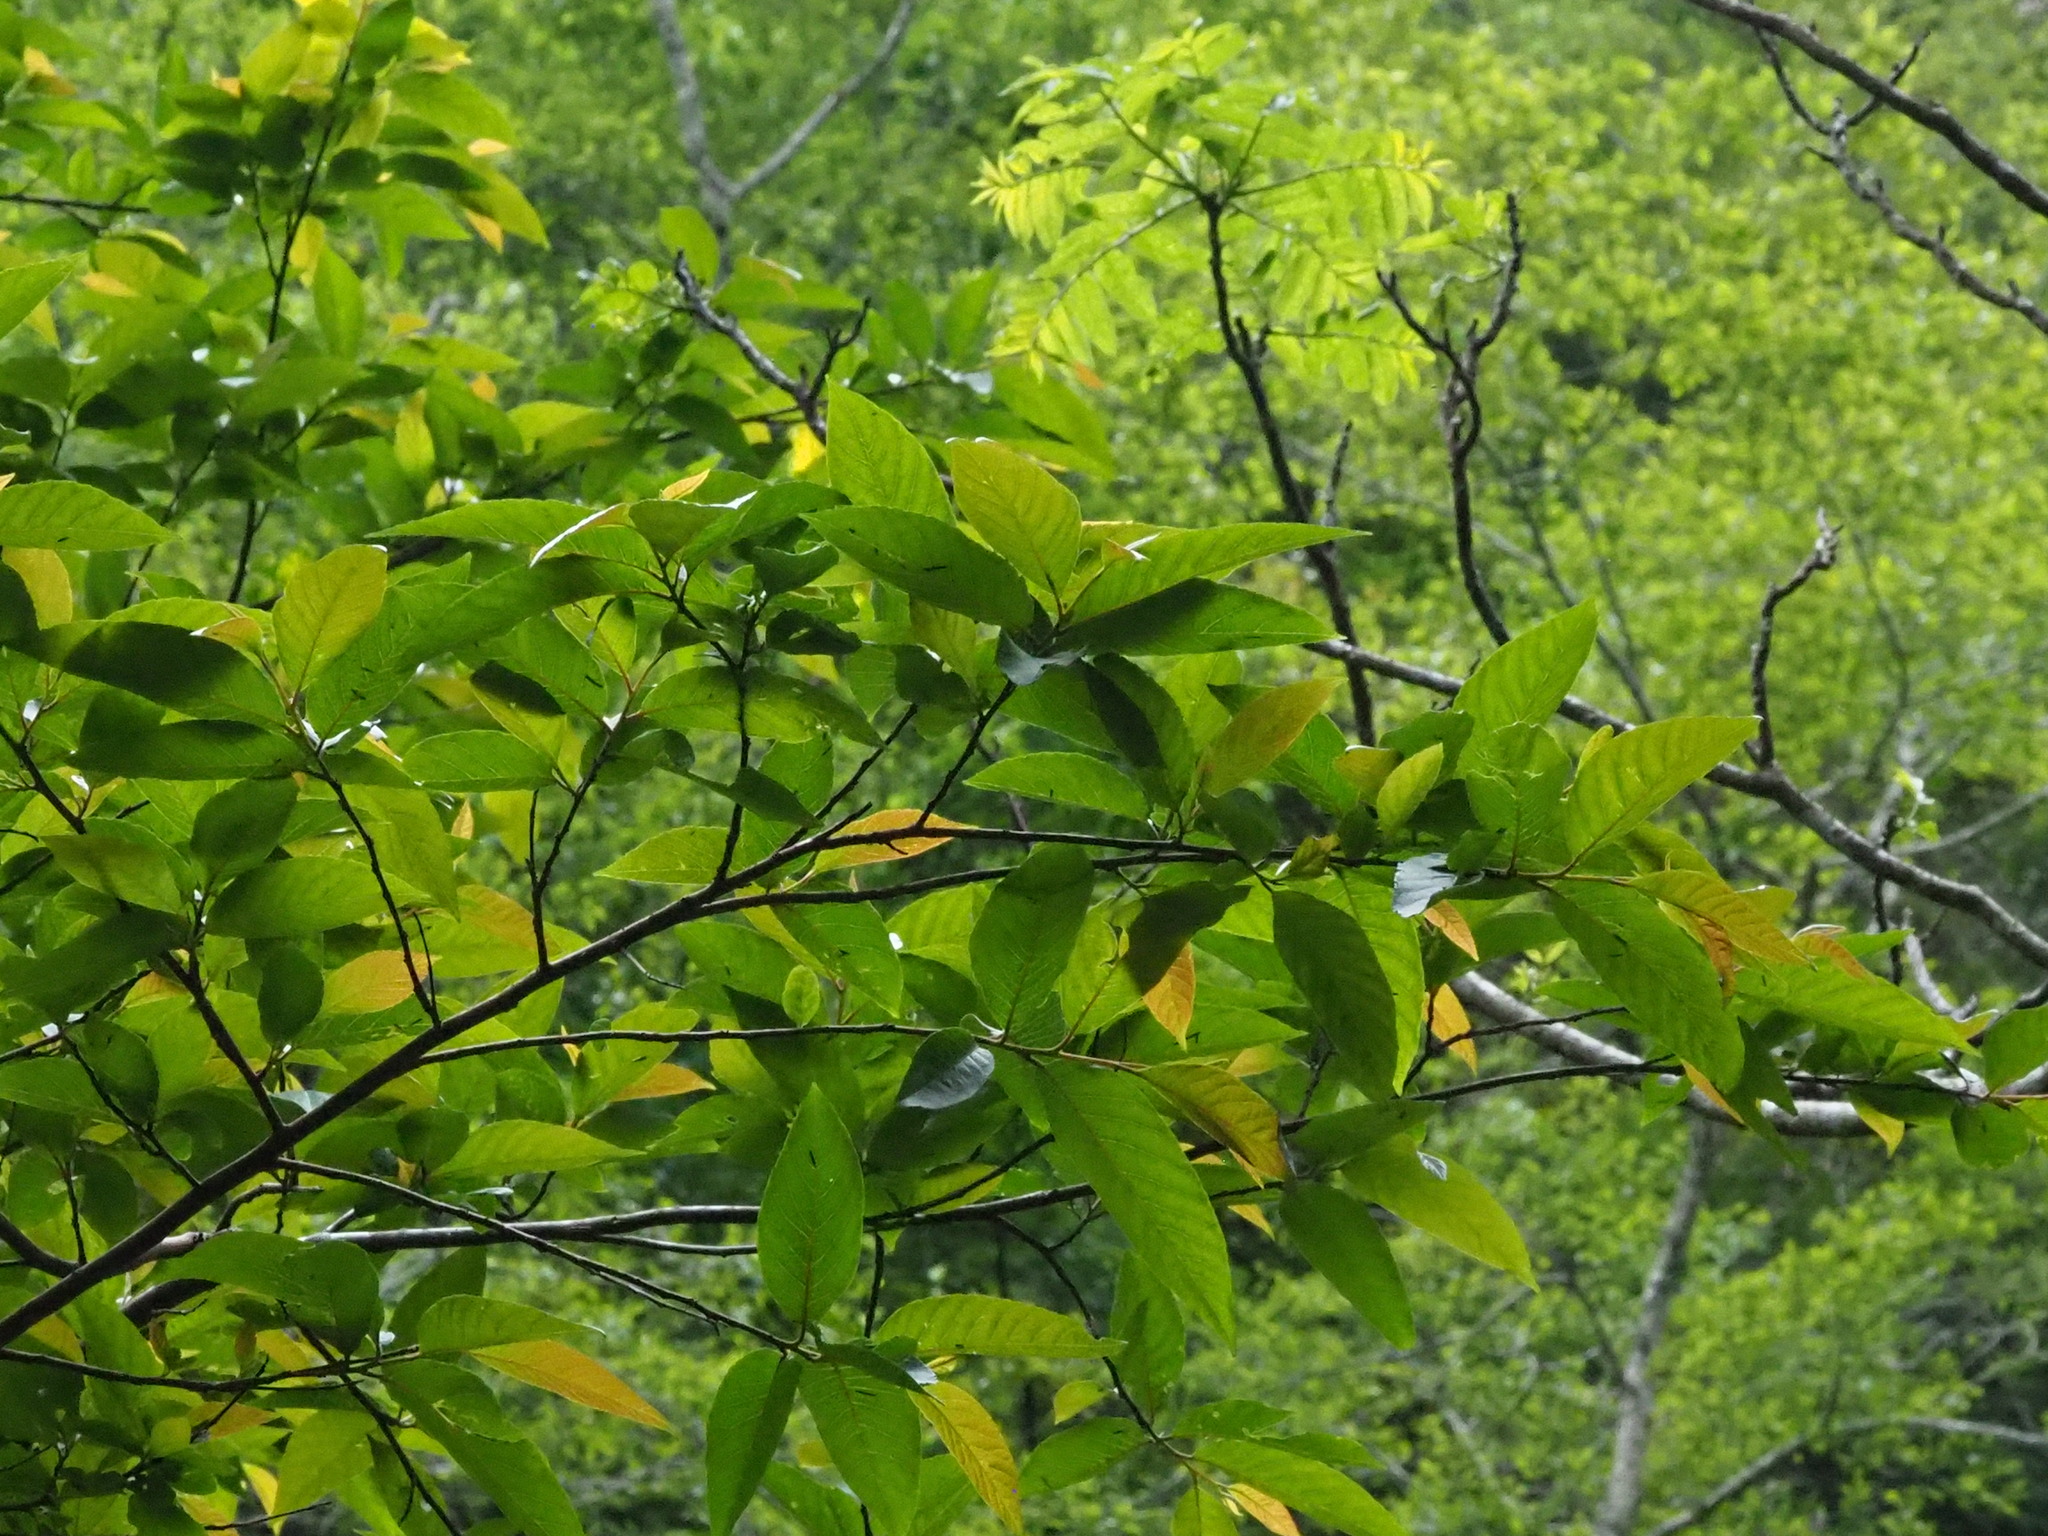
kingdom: Plantae
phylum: Tracheophyta
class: Magnoliopsida
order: Ericales
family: Styracaceae
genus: Alniphyllum
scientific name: Alniphyllum pterospermum
